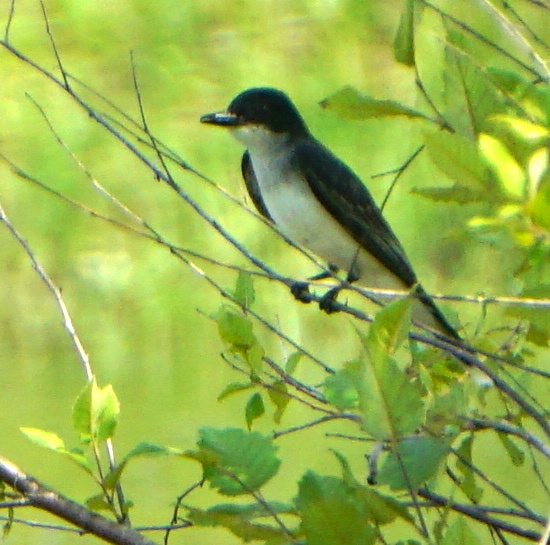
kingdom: Animalia
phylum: Chordata
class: Aves
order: Passeriformes
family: Tyrannidae
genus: Tyrannus
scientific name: Tyrannus tyrannus
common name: Eastern kingbird
